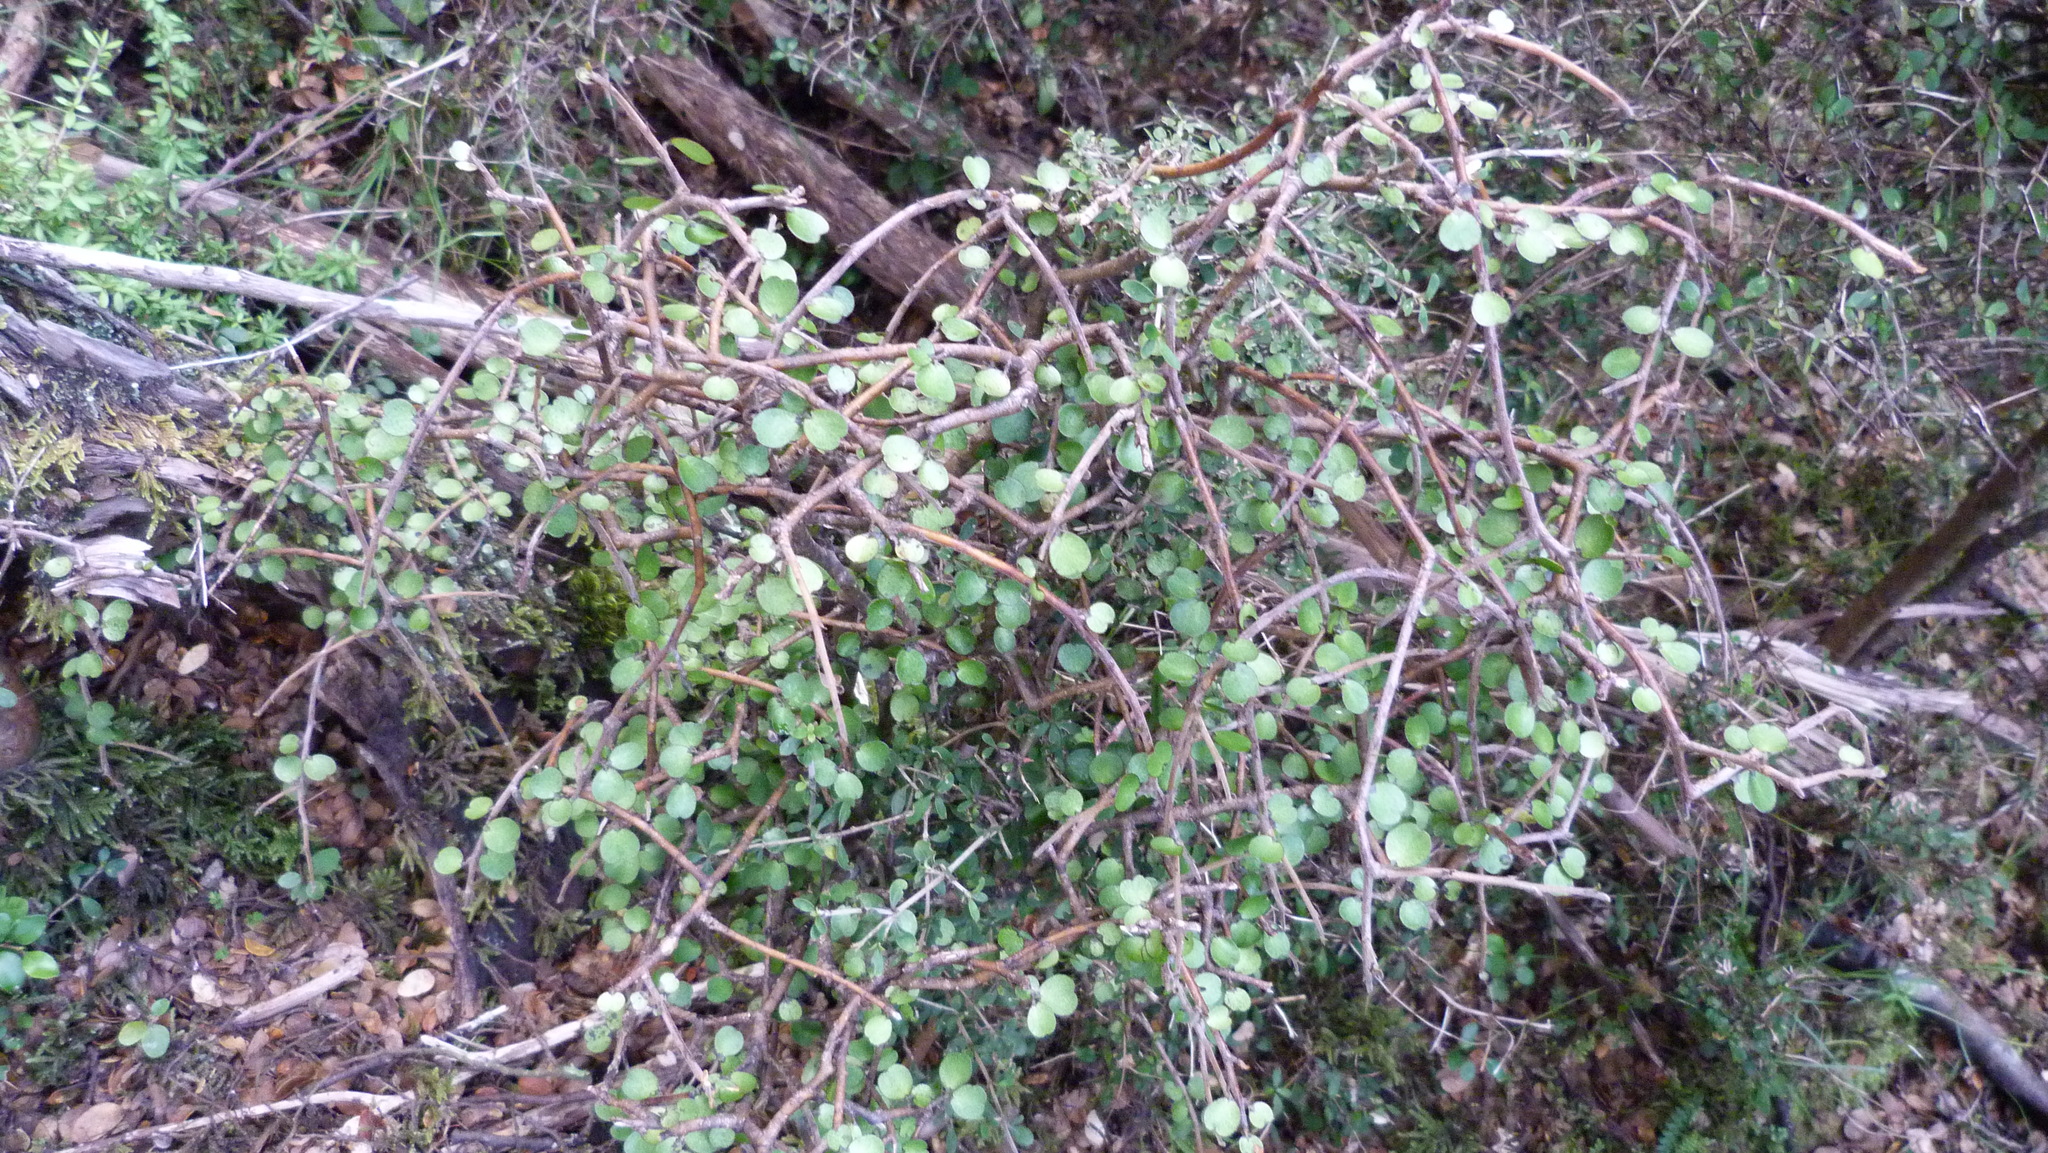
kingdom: Plantae
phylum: Tracheophyta
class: Magnoliopsida
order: Ericales
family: Primulaceae
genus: Myrsine
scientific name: Myrsine divaricata
